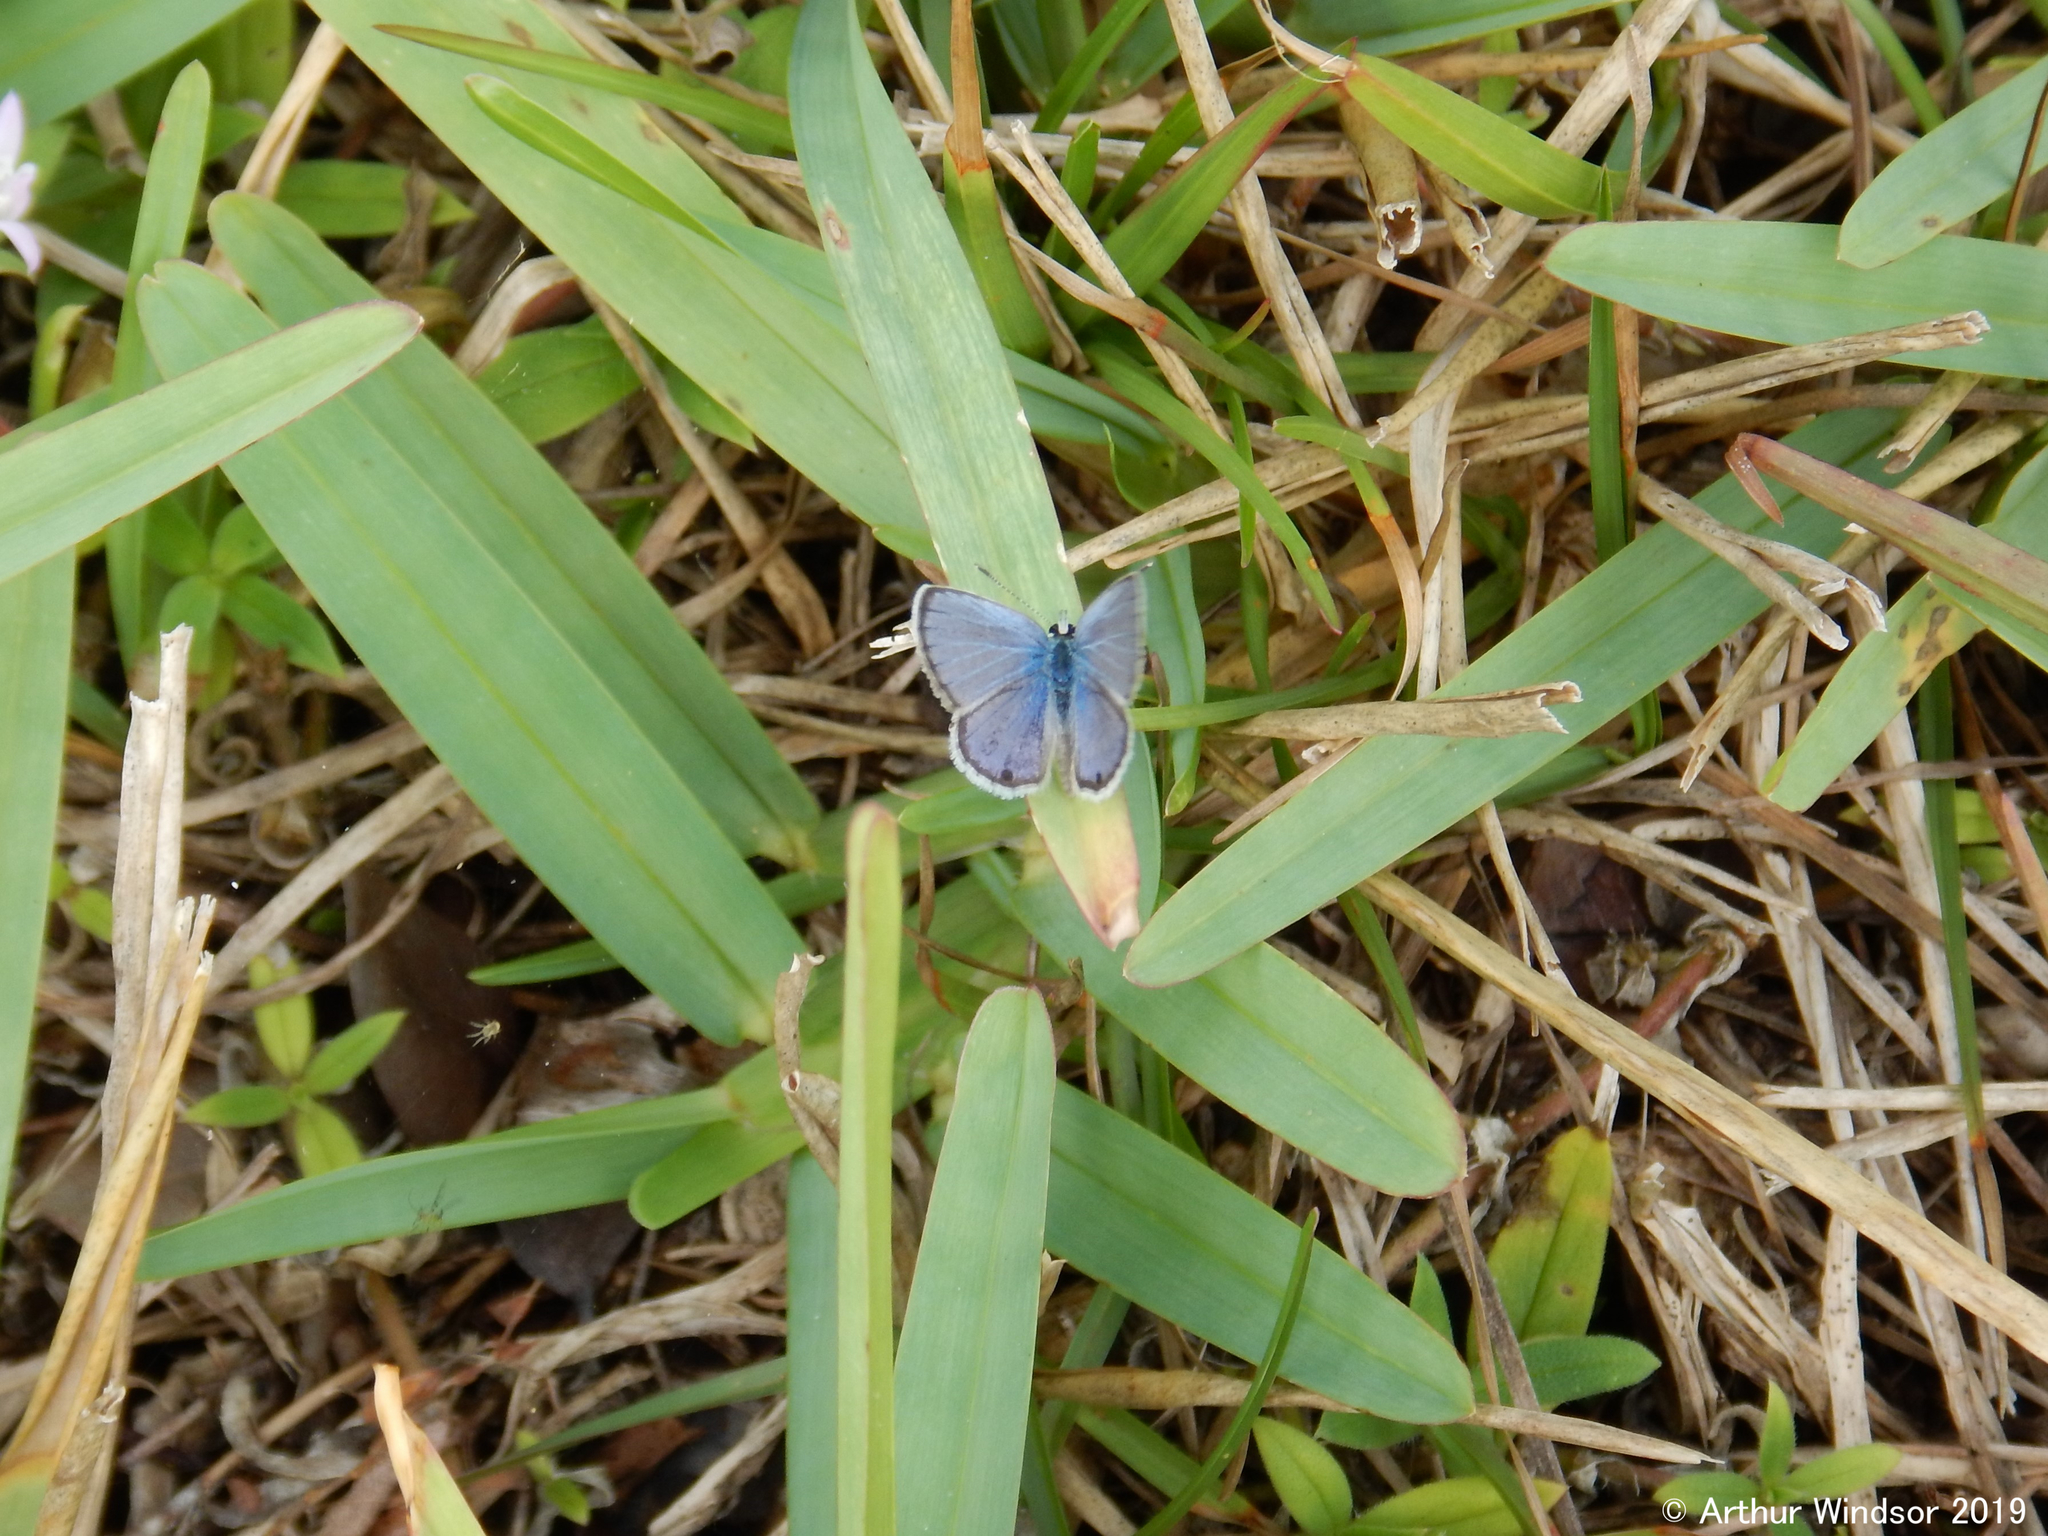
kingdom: Animalia
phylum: Arthropoda
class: Insecta
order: Lepidoptera
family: Lycaenidae
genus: Hemiargus
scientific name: Hemiargus ceraunus
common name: Ceraunus blue
